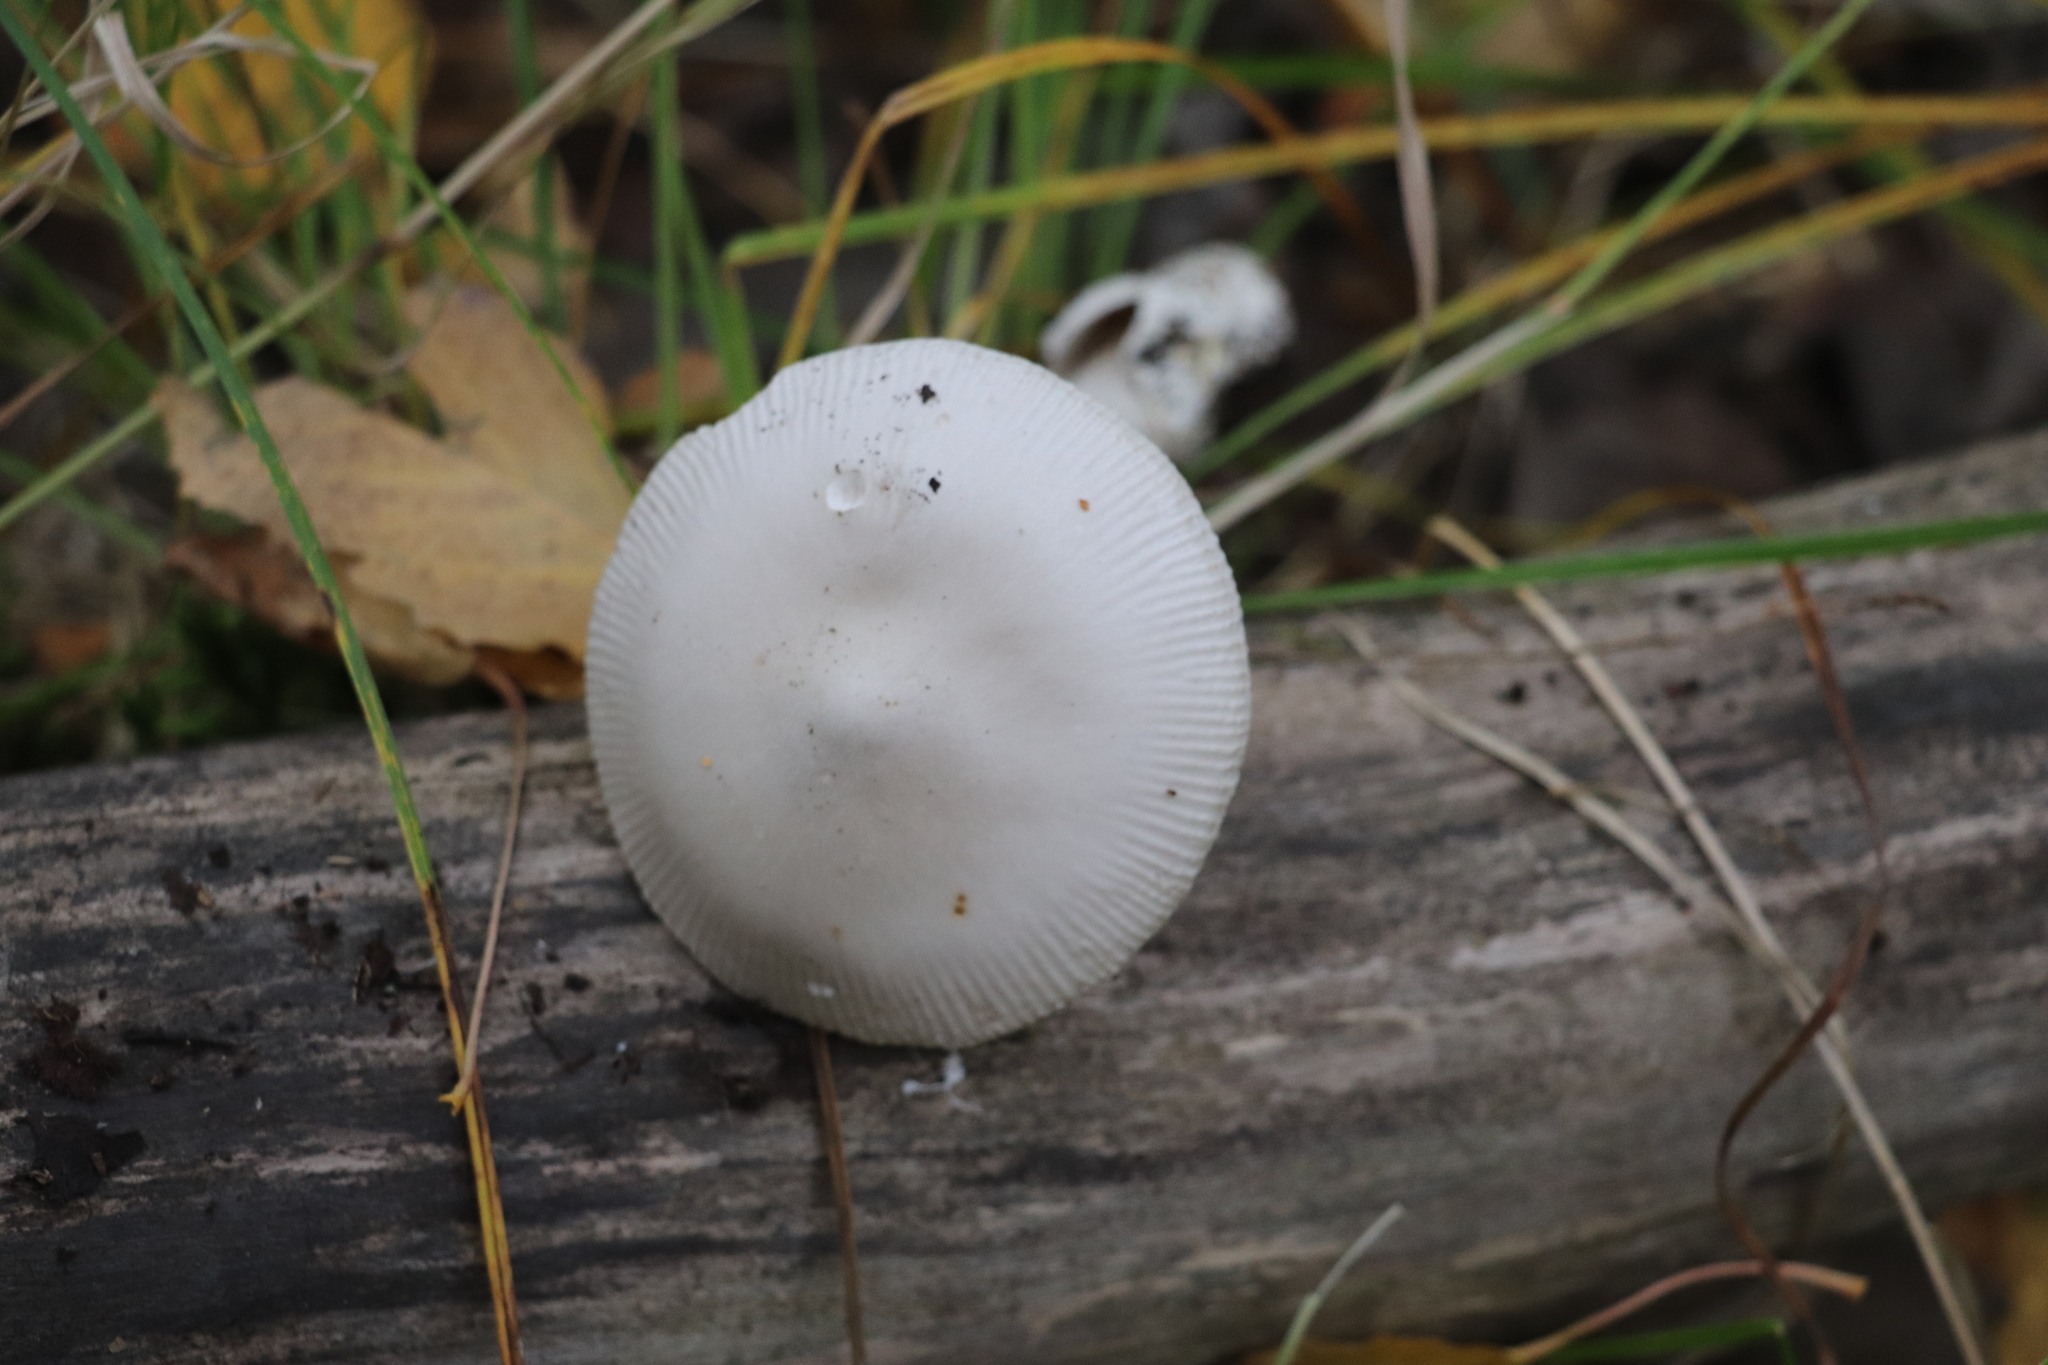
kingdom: Fungi
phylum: Basidiomycota
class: Agaricomycetes
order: Agaricales
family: Amanitaceae
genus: Amanita
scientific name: Amanita vaginata
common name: Grisette
